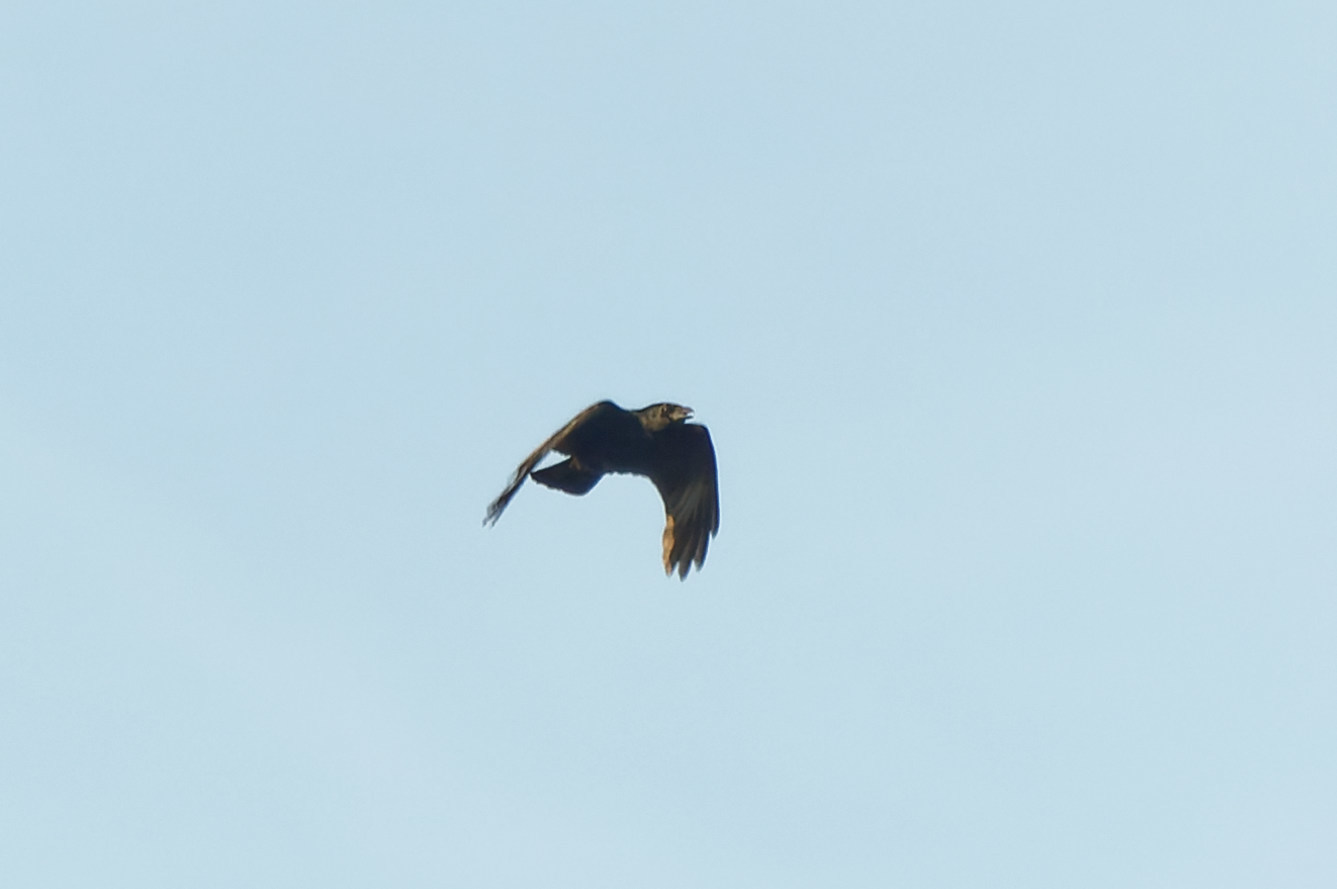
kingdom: Animalia
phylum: Chordata
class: Aves
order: Passeriformes
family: Corvidae
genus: Corvus
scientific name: Corvus corone
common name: Carrion crow
